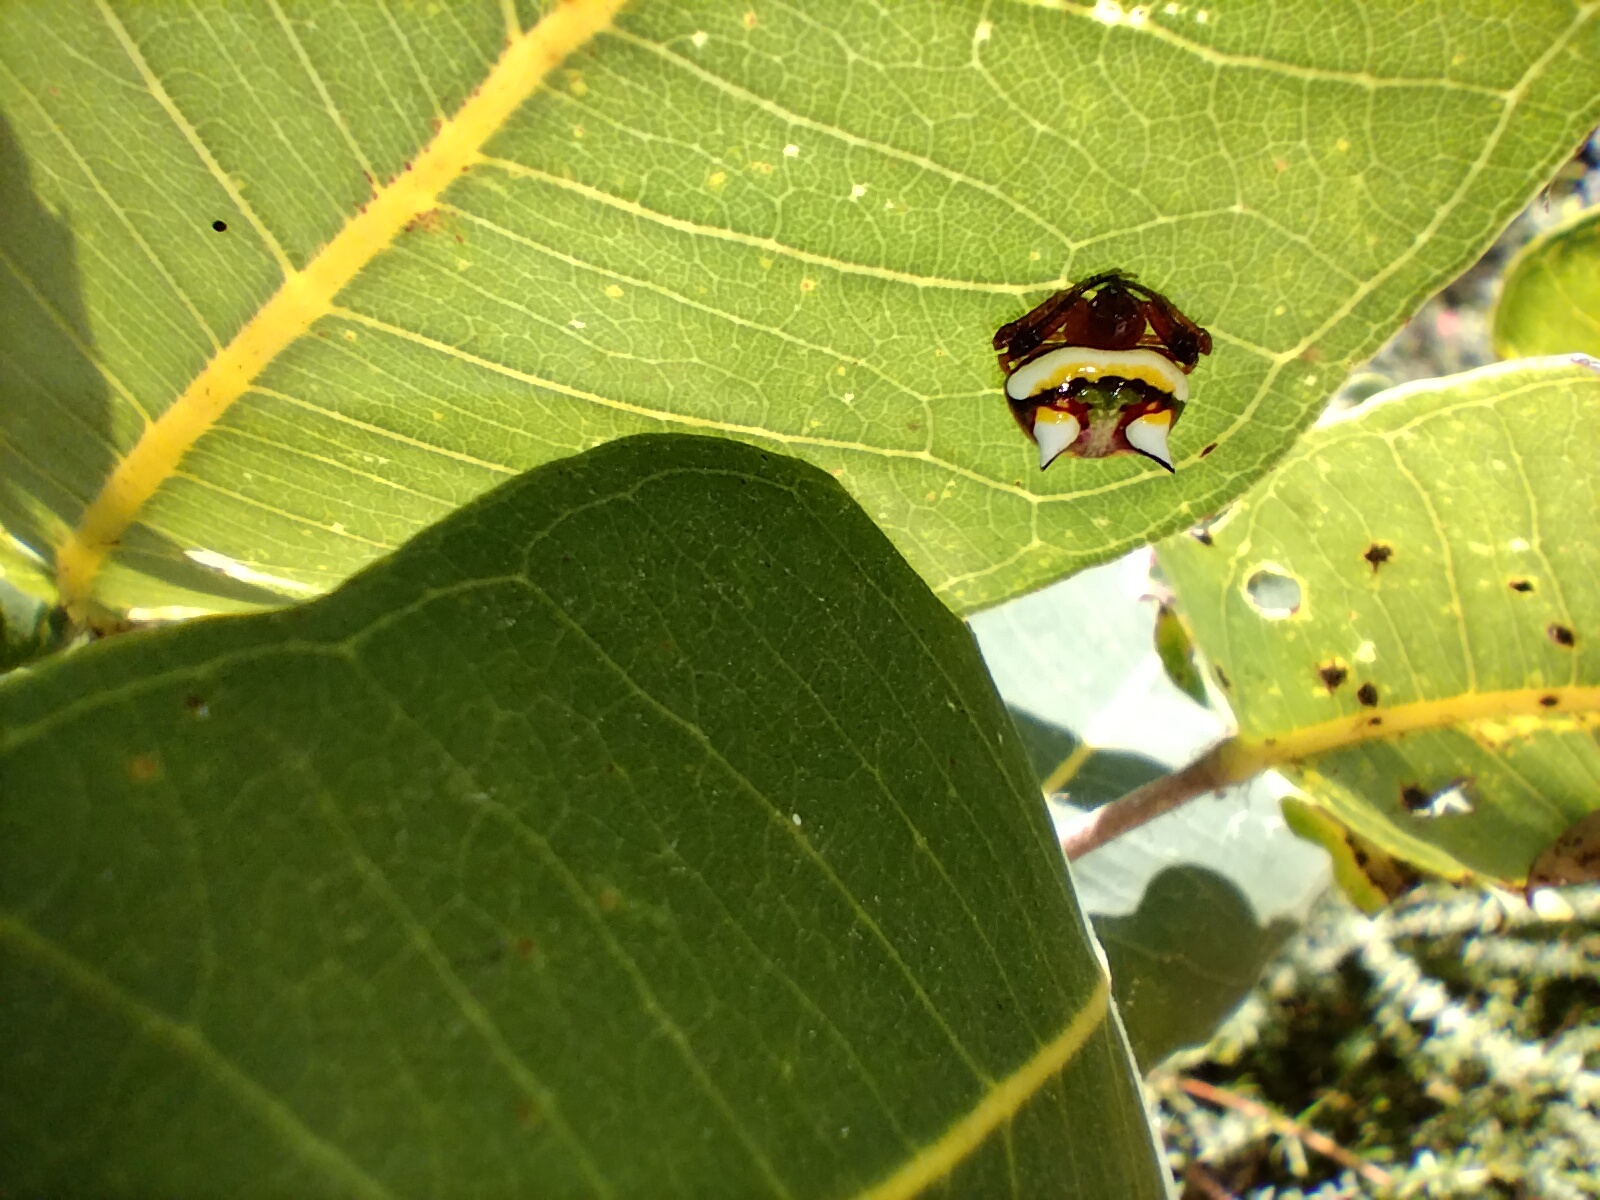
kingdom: Animalia
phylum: Arthropoda
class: Arachnida
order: Araneae
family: Araneidae
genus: Poecilopachys
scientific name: Poecilopachys australasia
